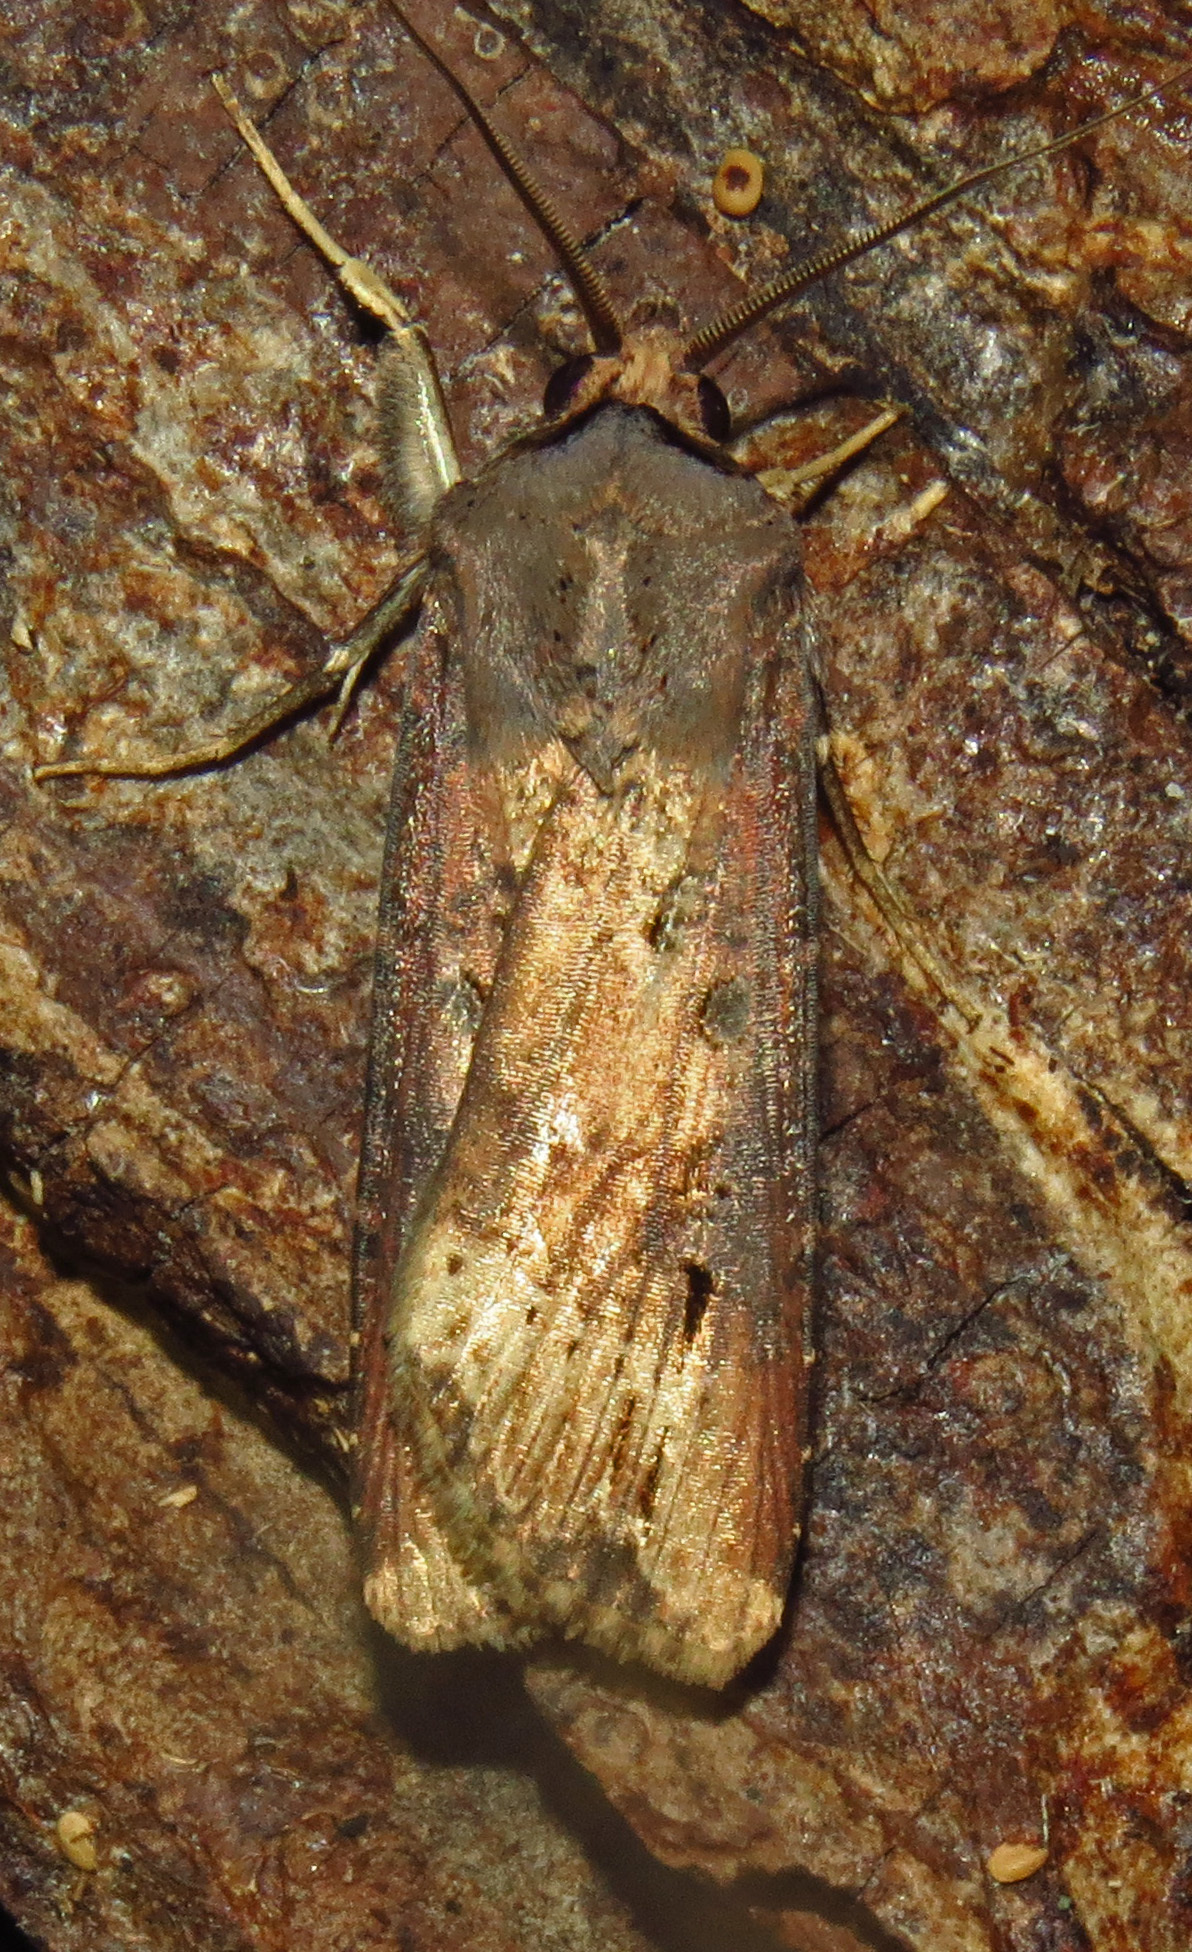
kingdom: Animalia
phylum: Arthropoda
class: Insecta
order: Lepidoptera
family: Noctuidae
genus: Agrotis
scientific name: Agrotis ipsilon
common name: Dark sword-grass
